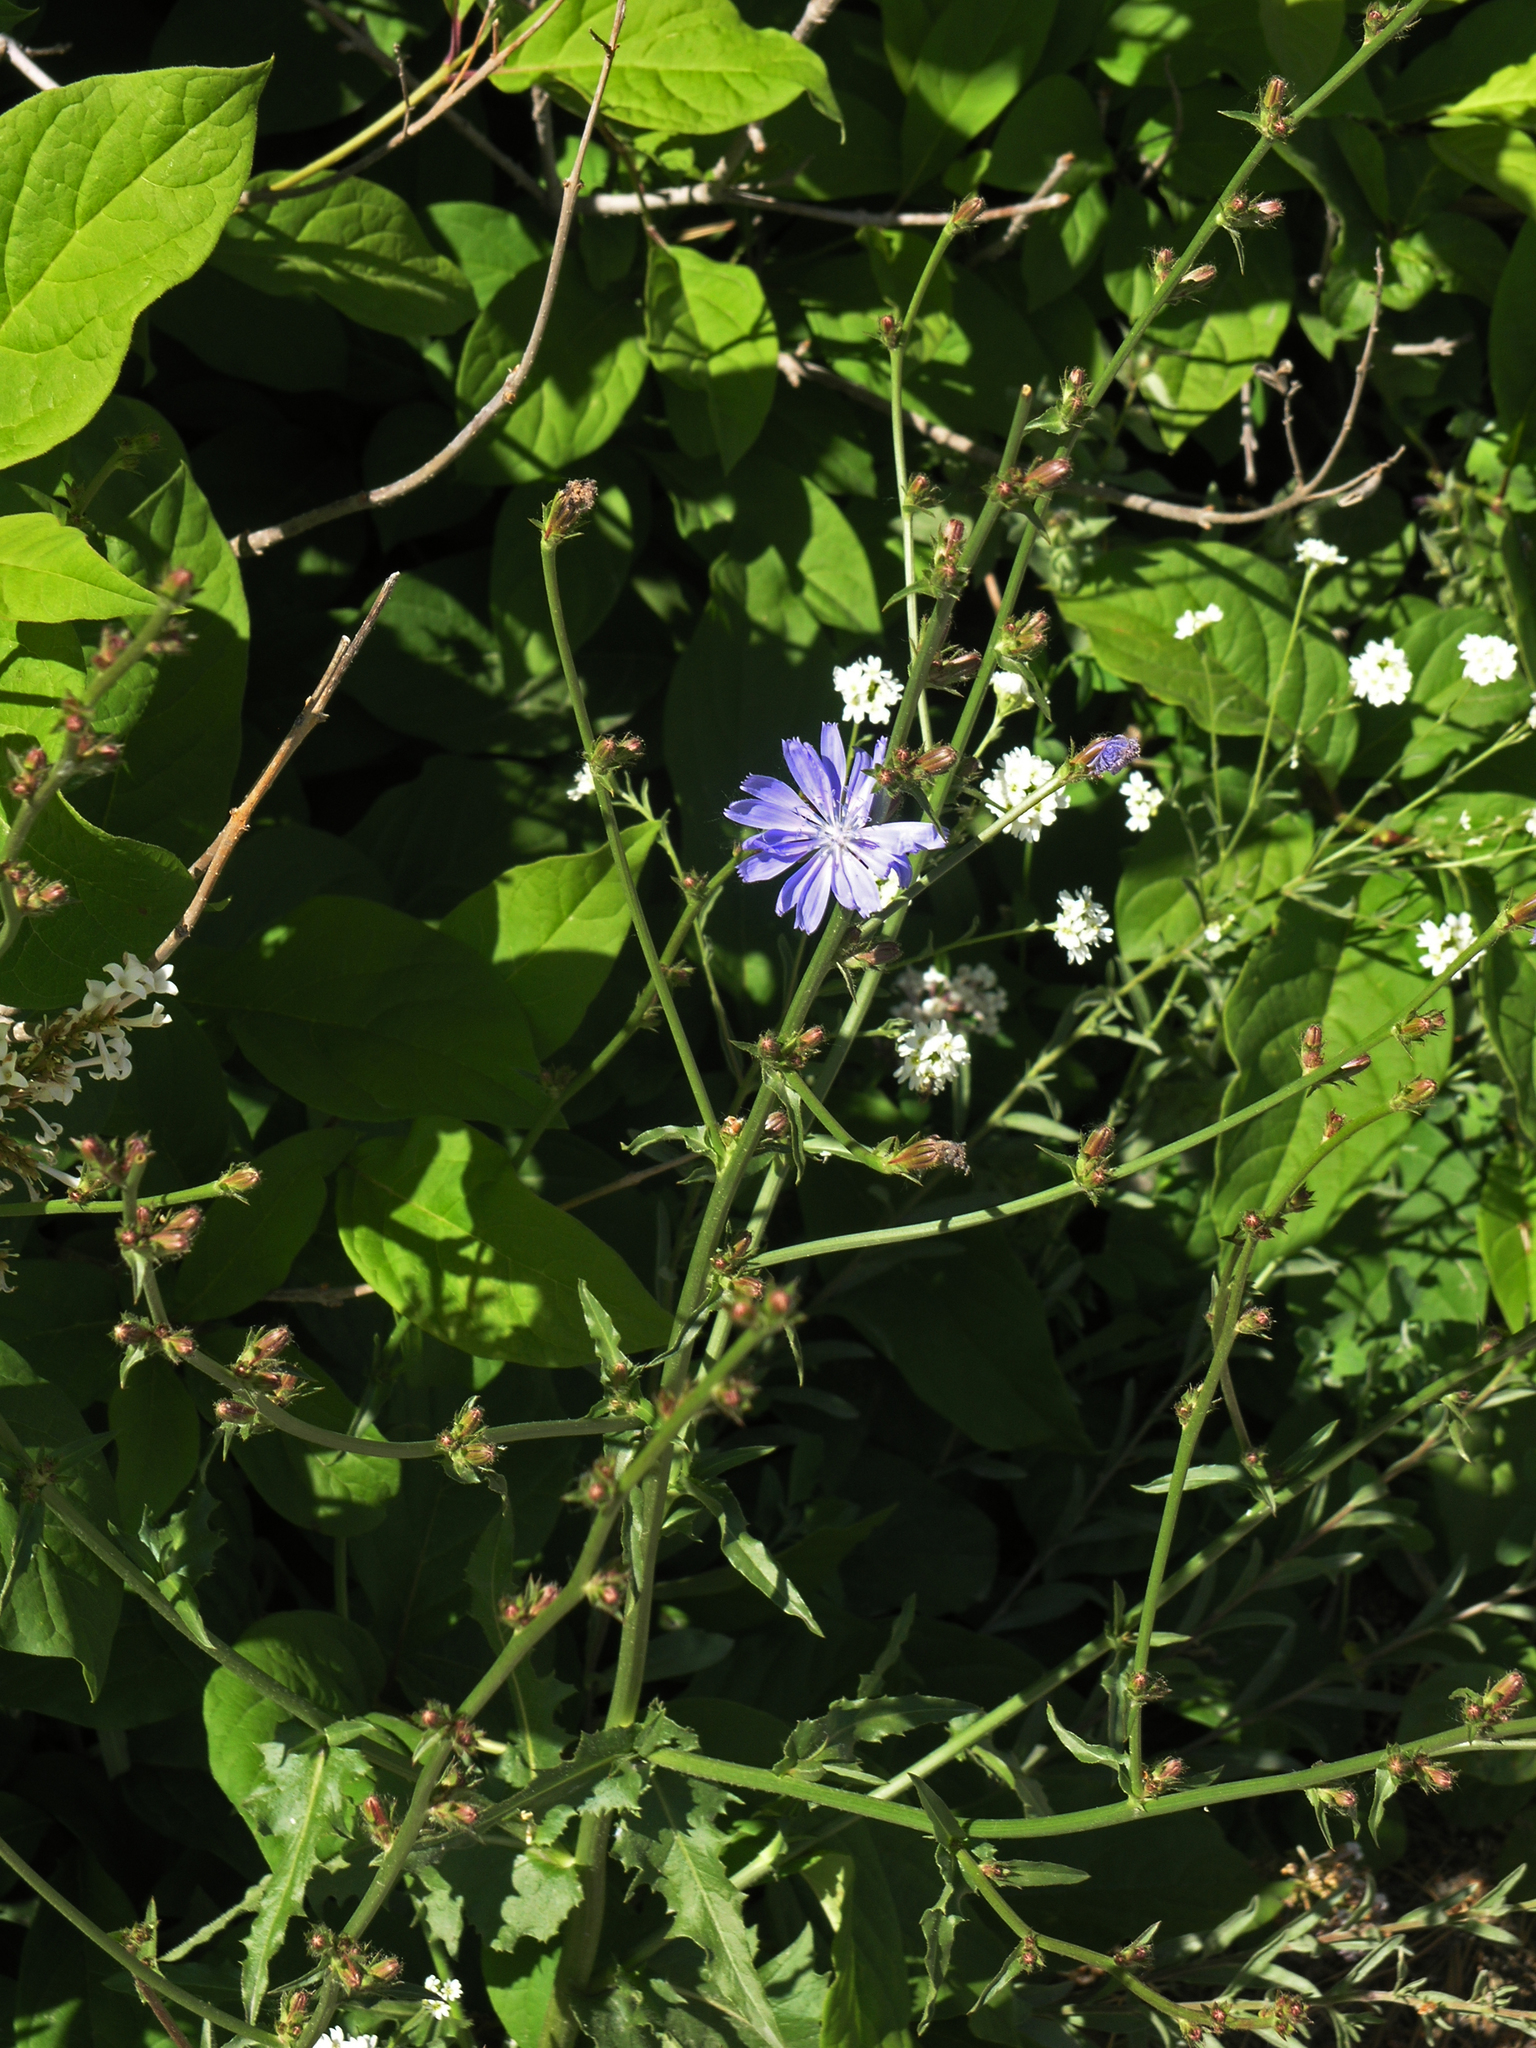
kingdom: Plantae
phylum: Tracheophyta
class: Magnoliopsida
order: Asterales
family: Asteraceae
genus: Cichorium
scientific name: Cichorium intybus
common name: Chicory
